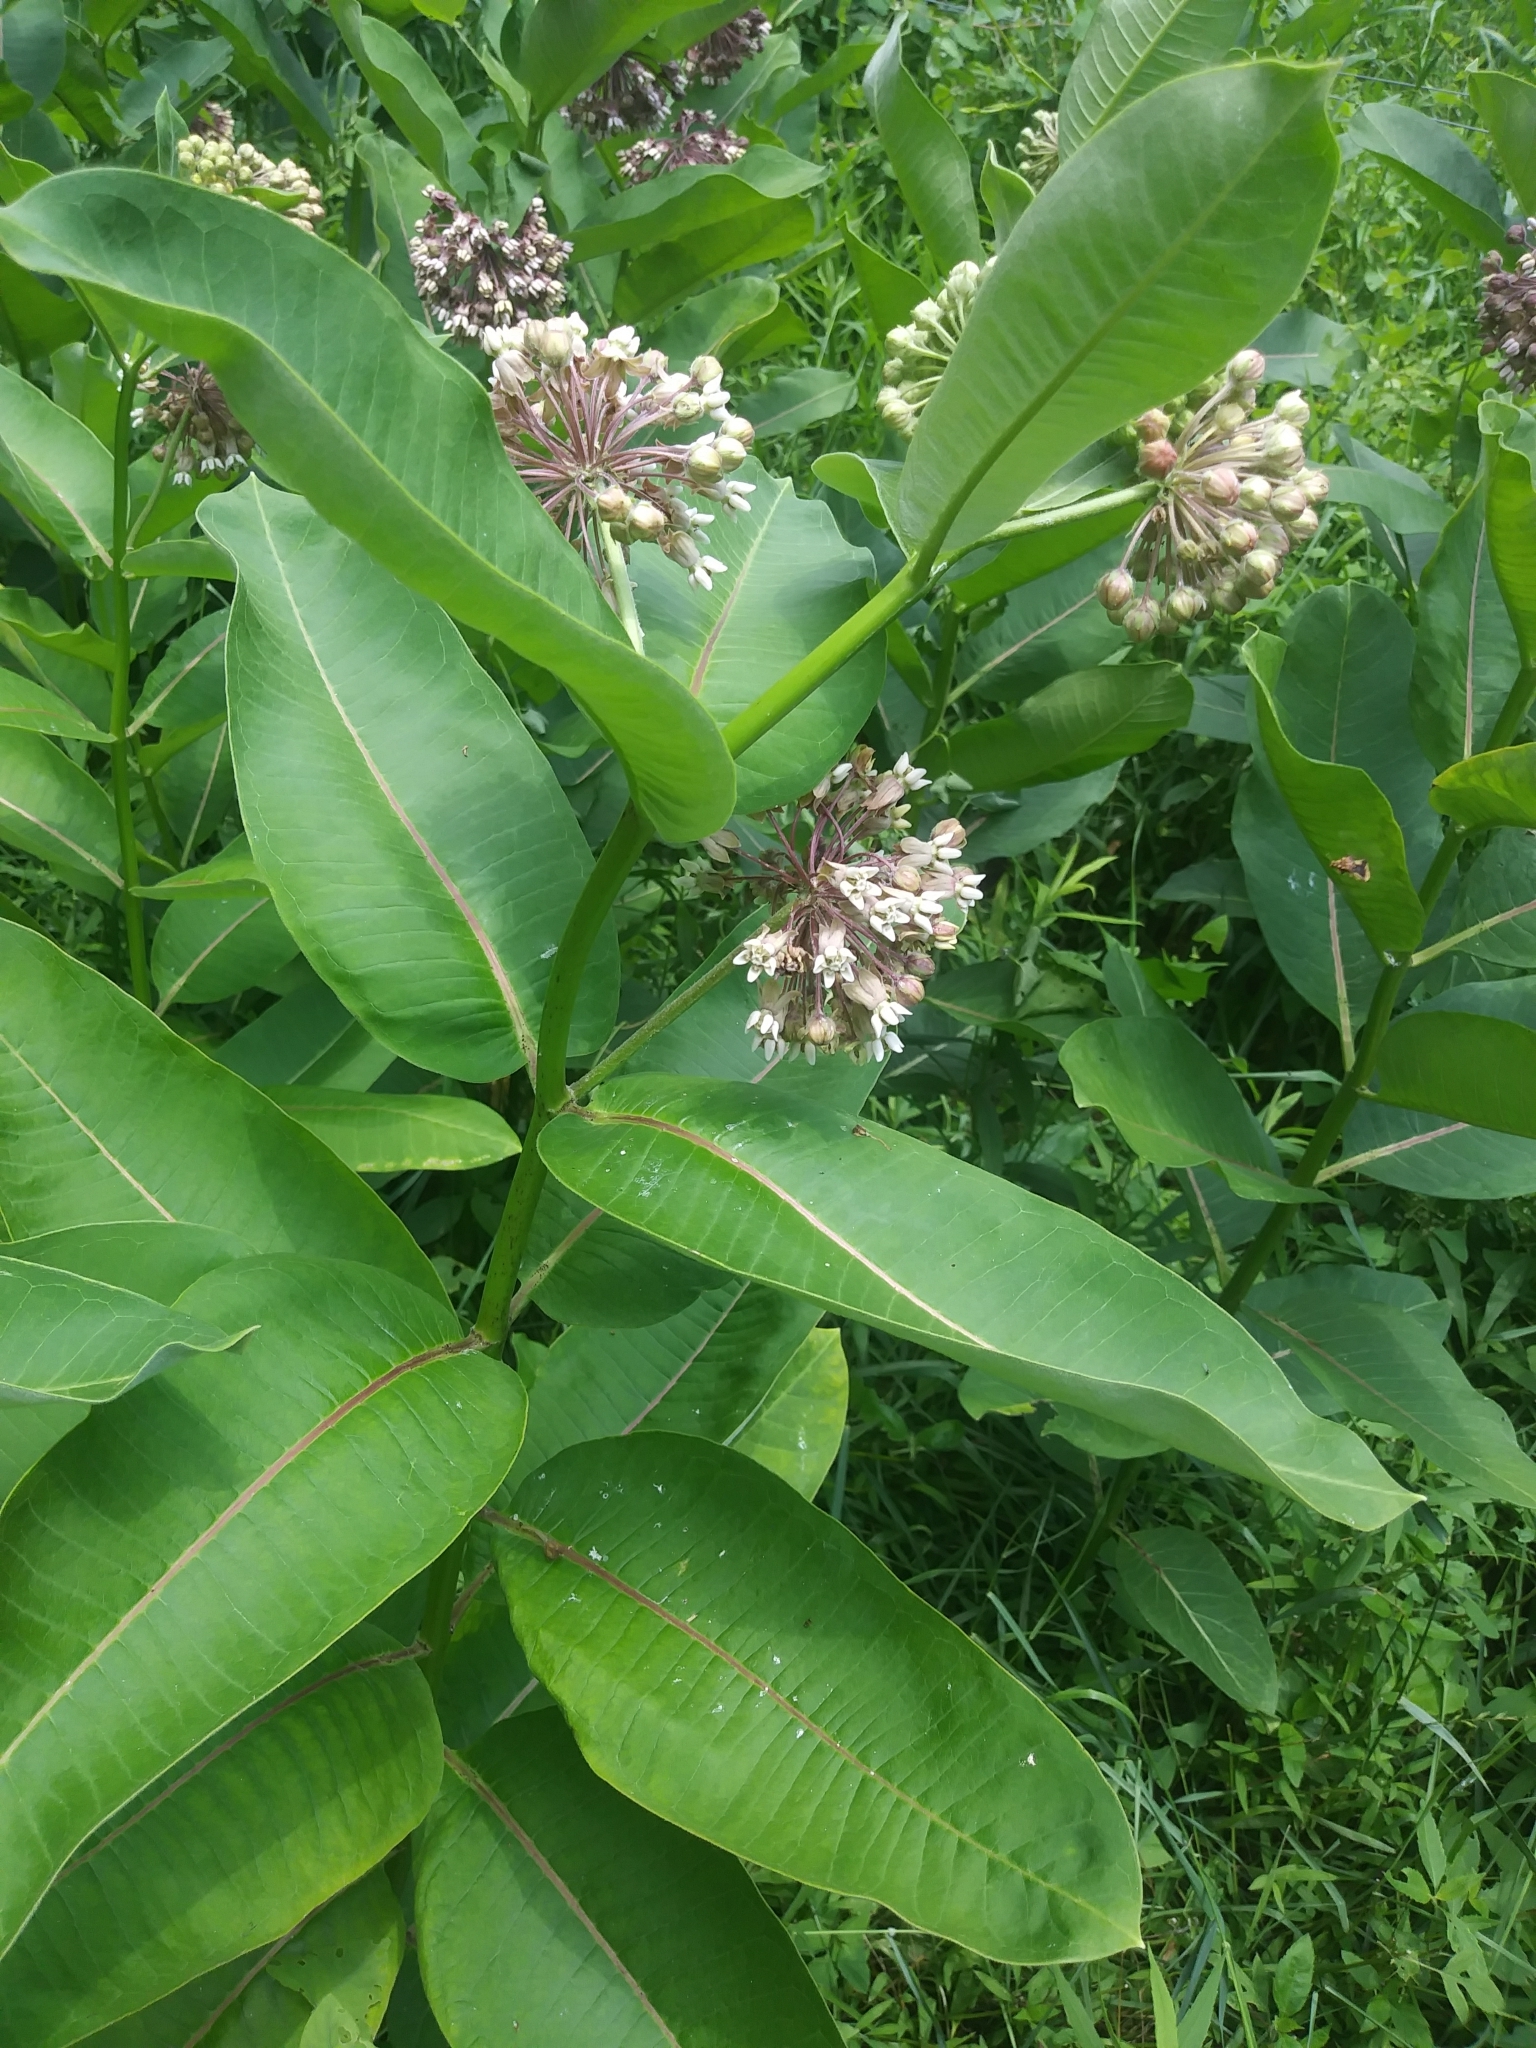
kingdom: Plantae
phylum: Tracheophyta
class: Magnoliopsida
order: Gentianales
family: Apocynaceae
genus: Asclepias
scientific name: Asclepias syriaca
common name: Common milkweed
